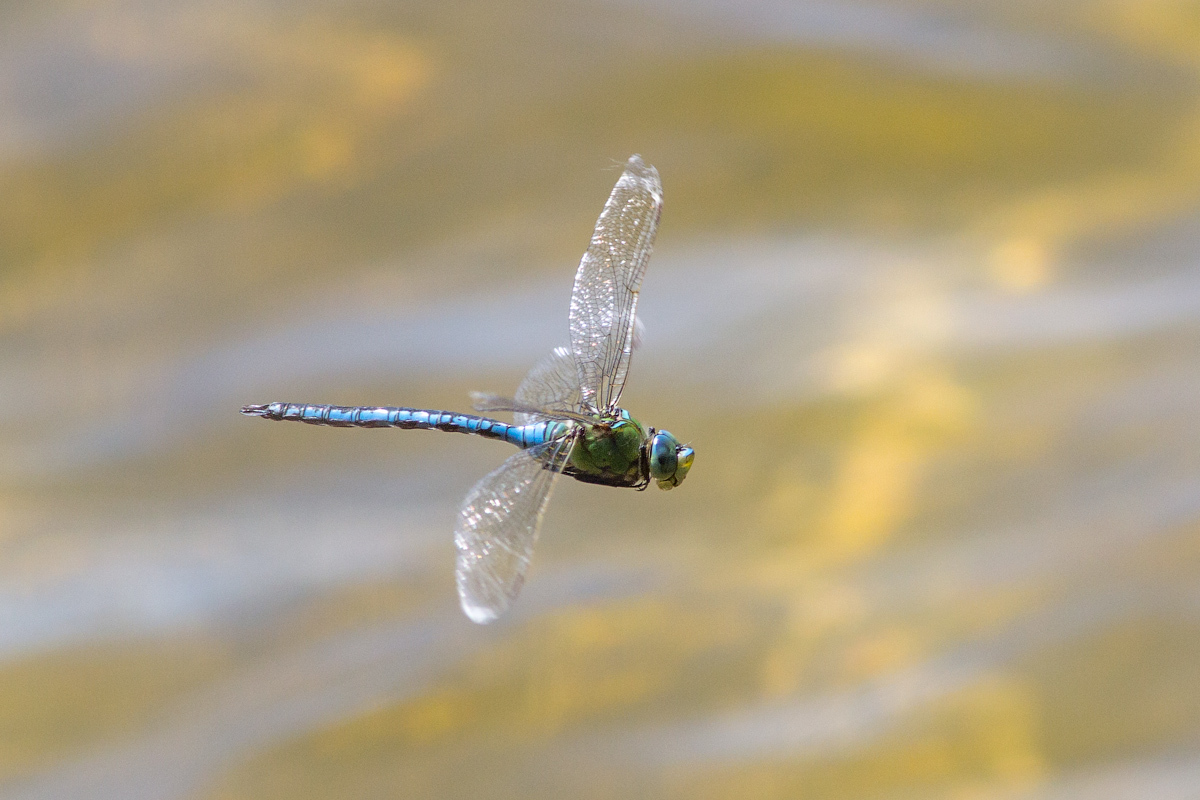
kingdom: Animalia
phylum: Arthropoda
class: Insecta
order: Odonata
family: Aeshnidae
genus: Anax
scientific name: Anax imperator
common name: Emperor dragonfly
